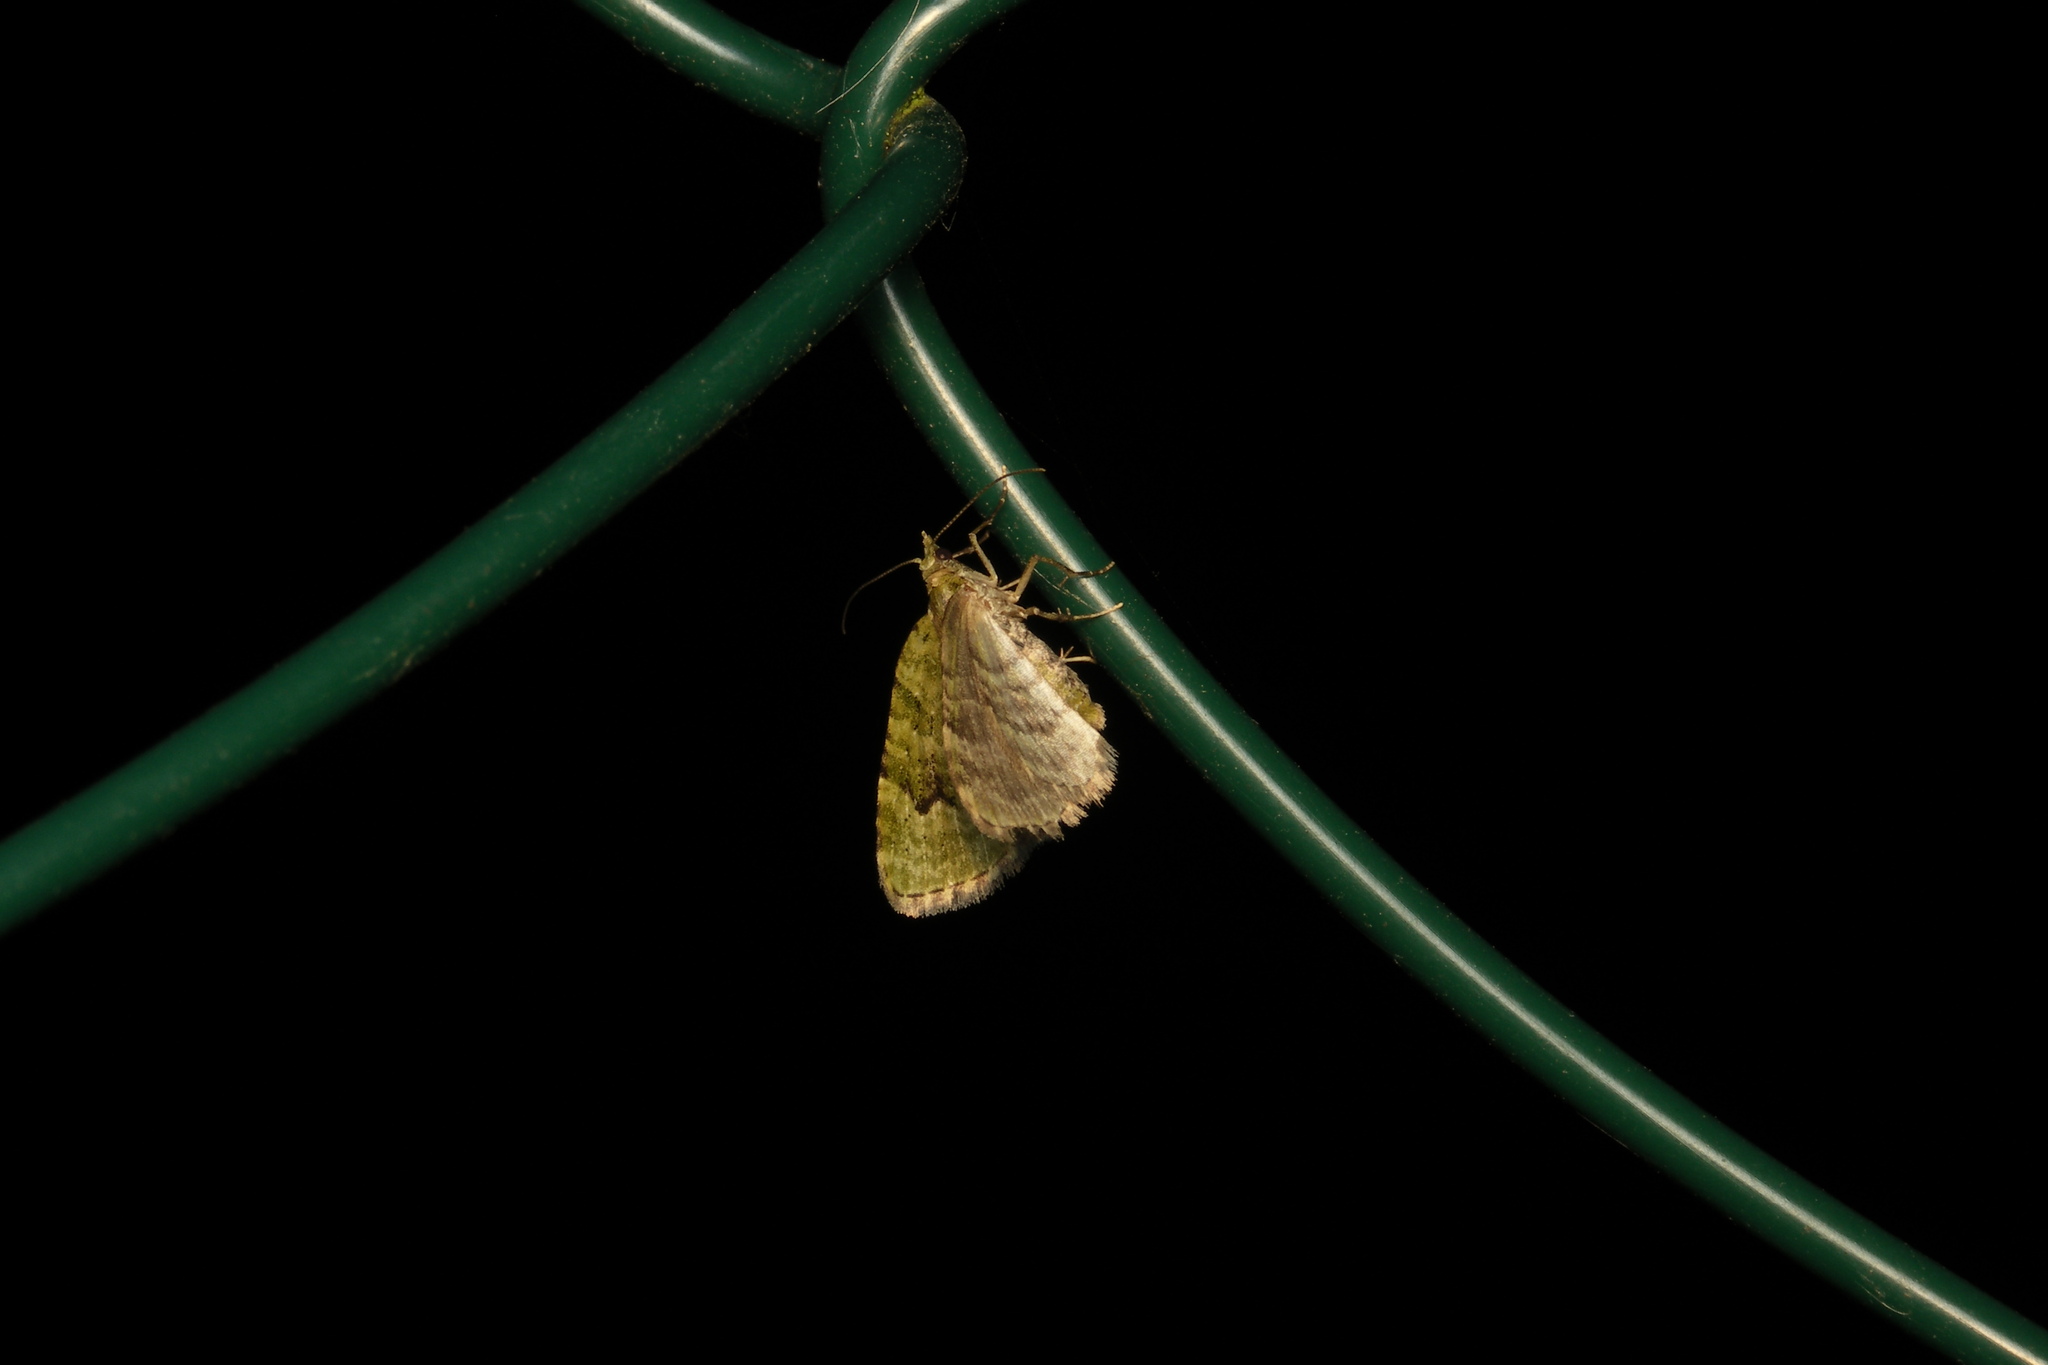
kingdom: Animalia
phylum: Arthropoda
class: Insecta
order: Lepidoptera
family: Geometridae
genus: Chloroclystis
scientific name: Chloroclystis v-ata
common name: V-pug
